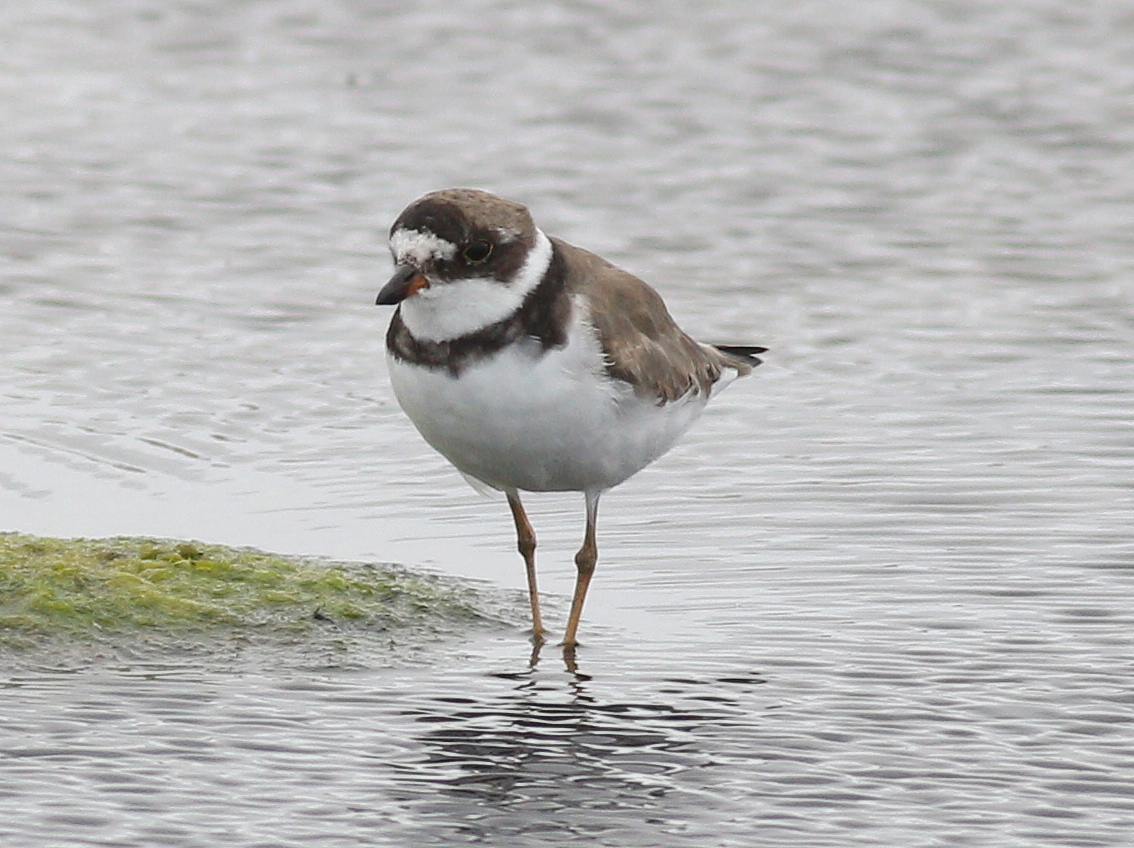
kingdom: Animalia
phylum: Chordata
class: Aves
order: Charadriiformes
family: Charadriidae
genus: Charadrius
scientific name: Charadrius semipalmatus
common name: Semipalmated plover
